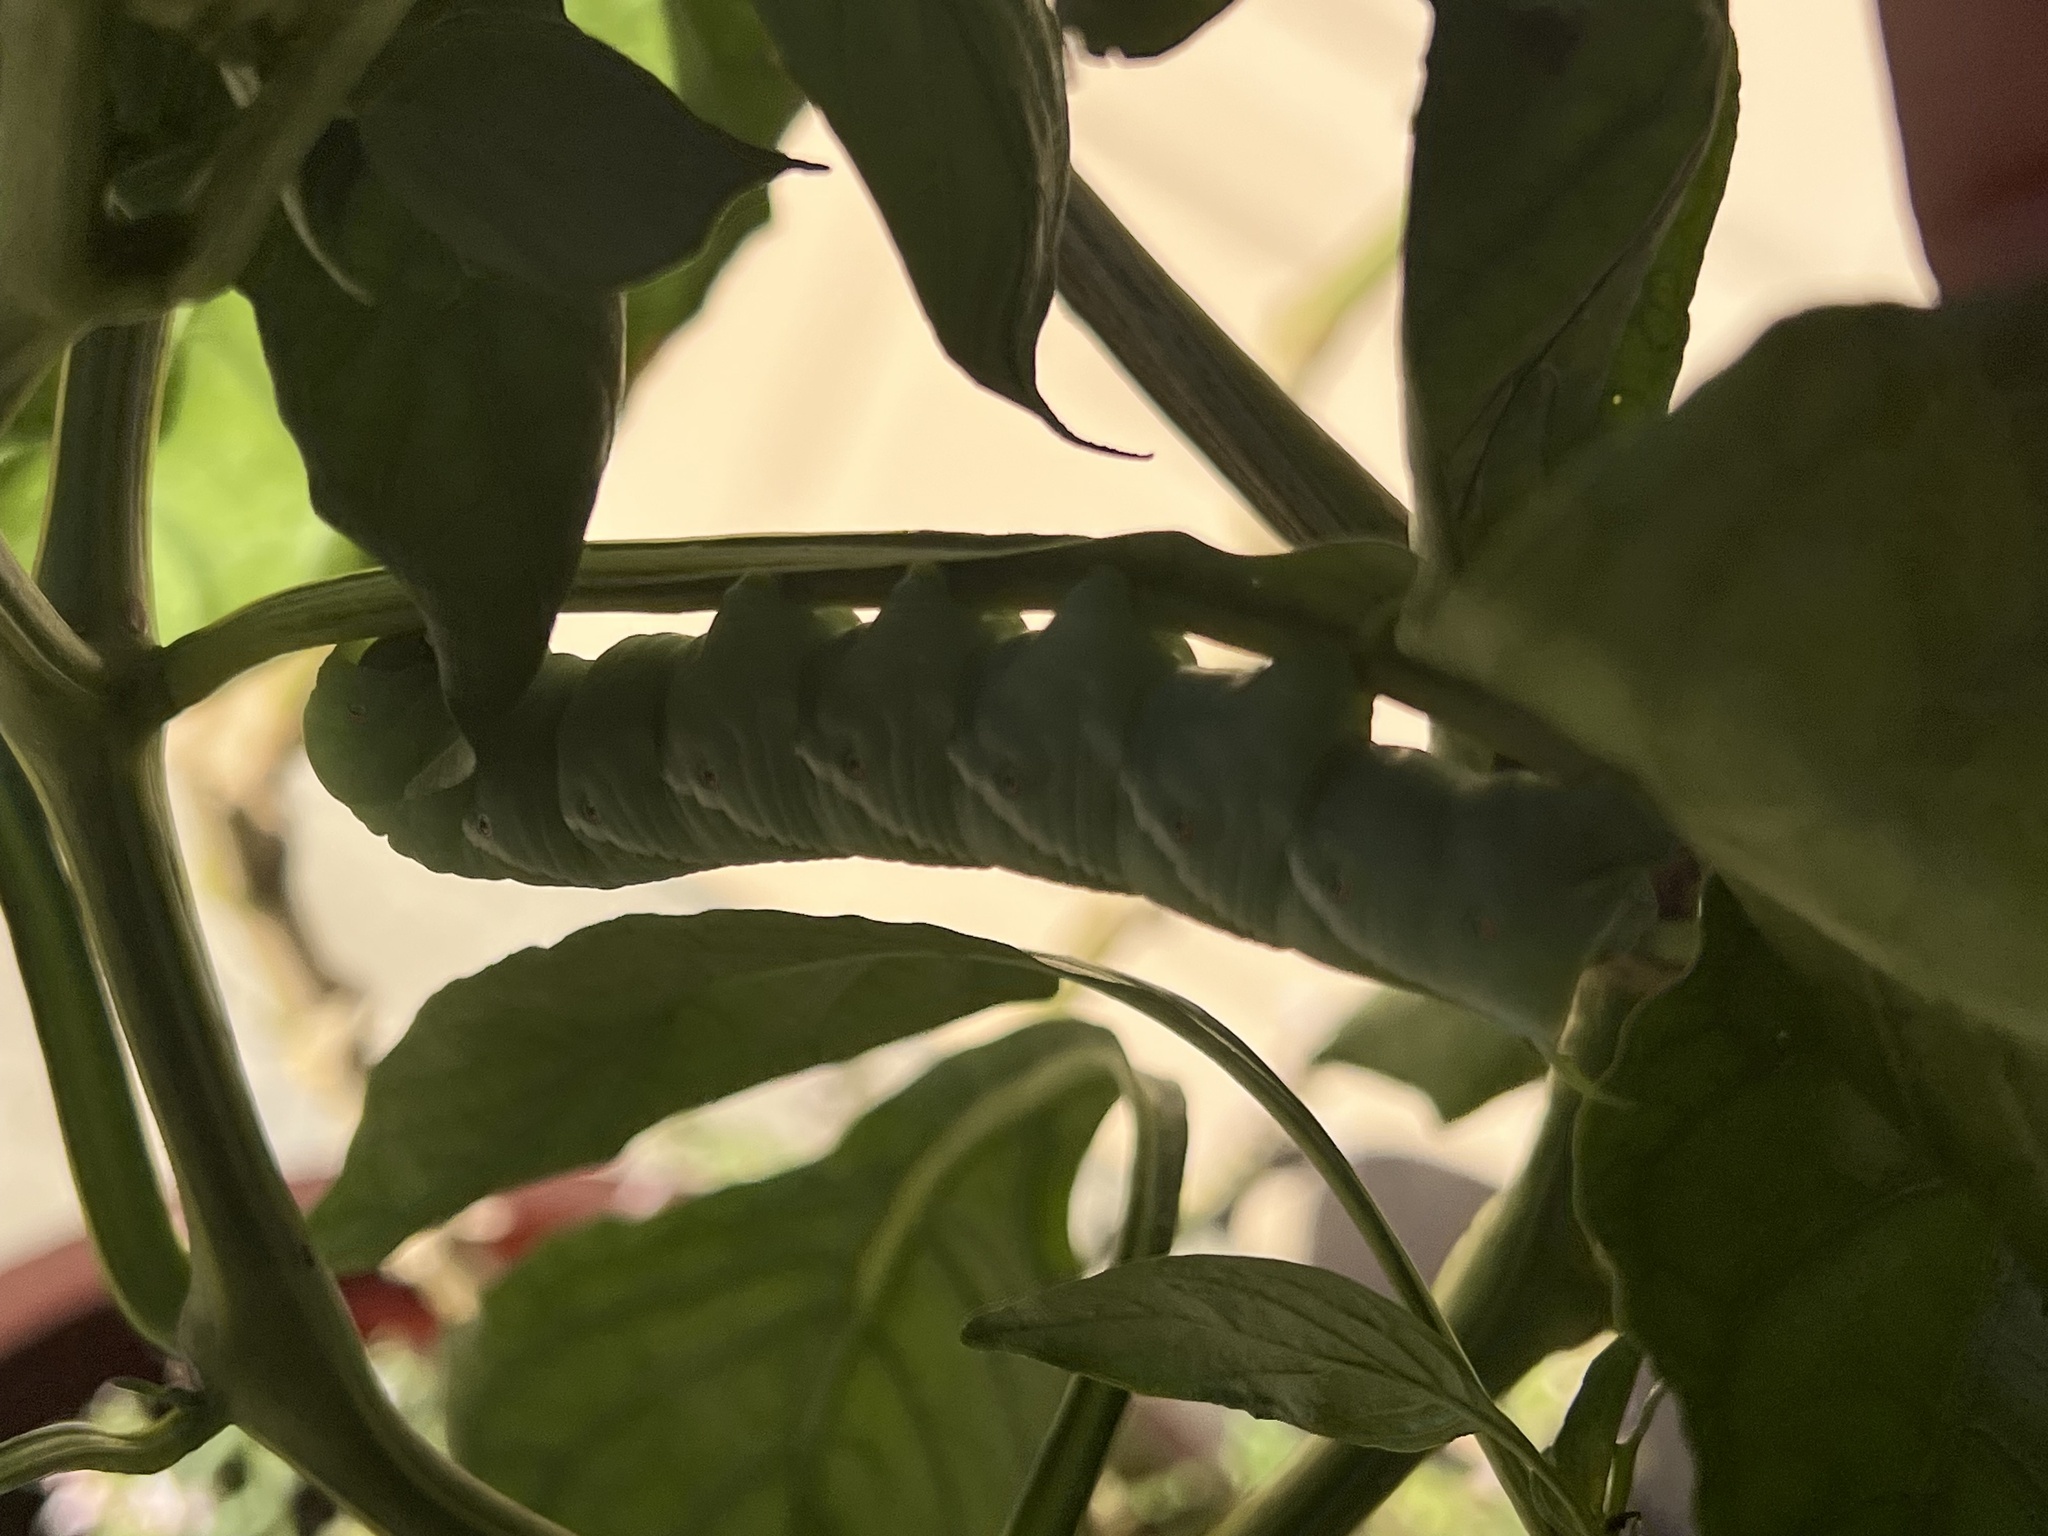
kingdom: Animalia
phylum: Arthropoda
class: Insecta
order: Lepidoptera
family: Sphingidae
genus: Manduca
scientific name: Manduca sexta
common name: Carolina sphinx
